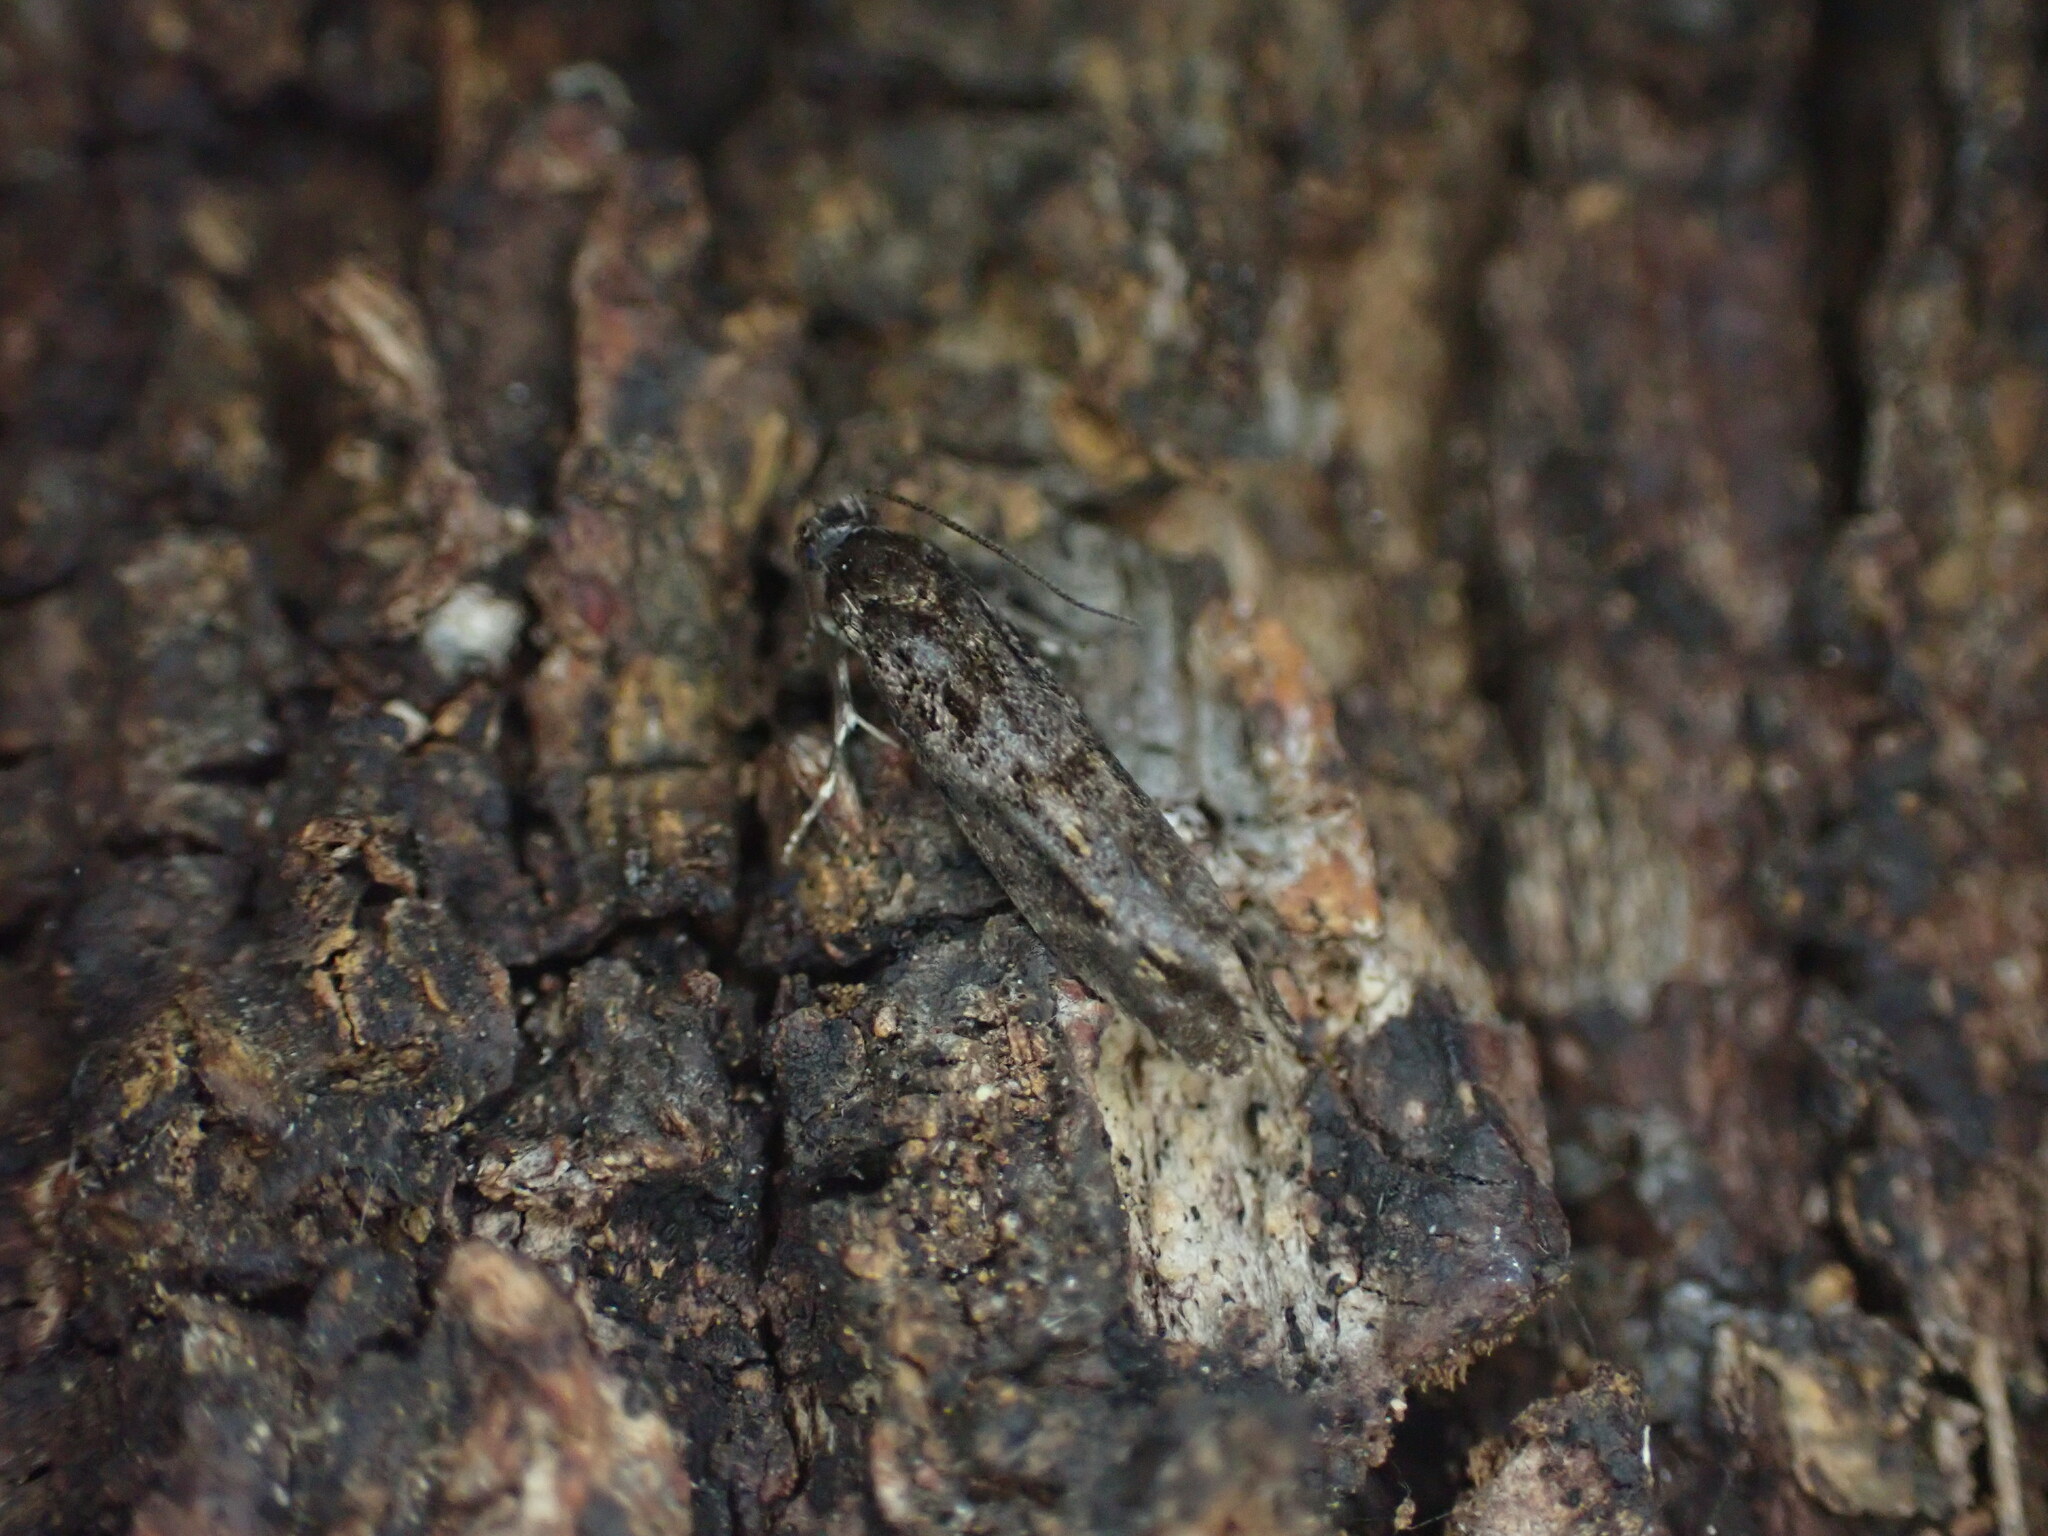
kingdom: Animalia
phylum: Arthropoda
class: Insecta
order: Lepidoptera
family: Tineidae
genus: Archyala
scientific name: Archyala pentazyga
